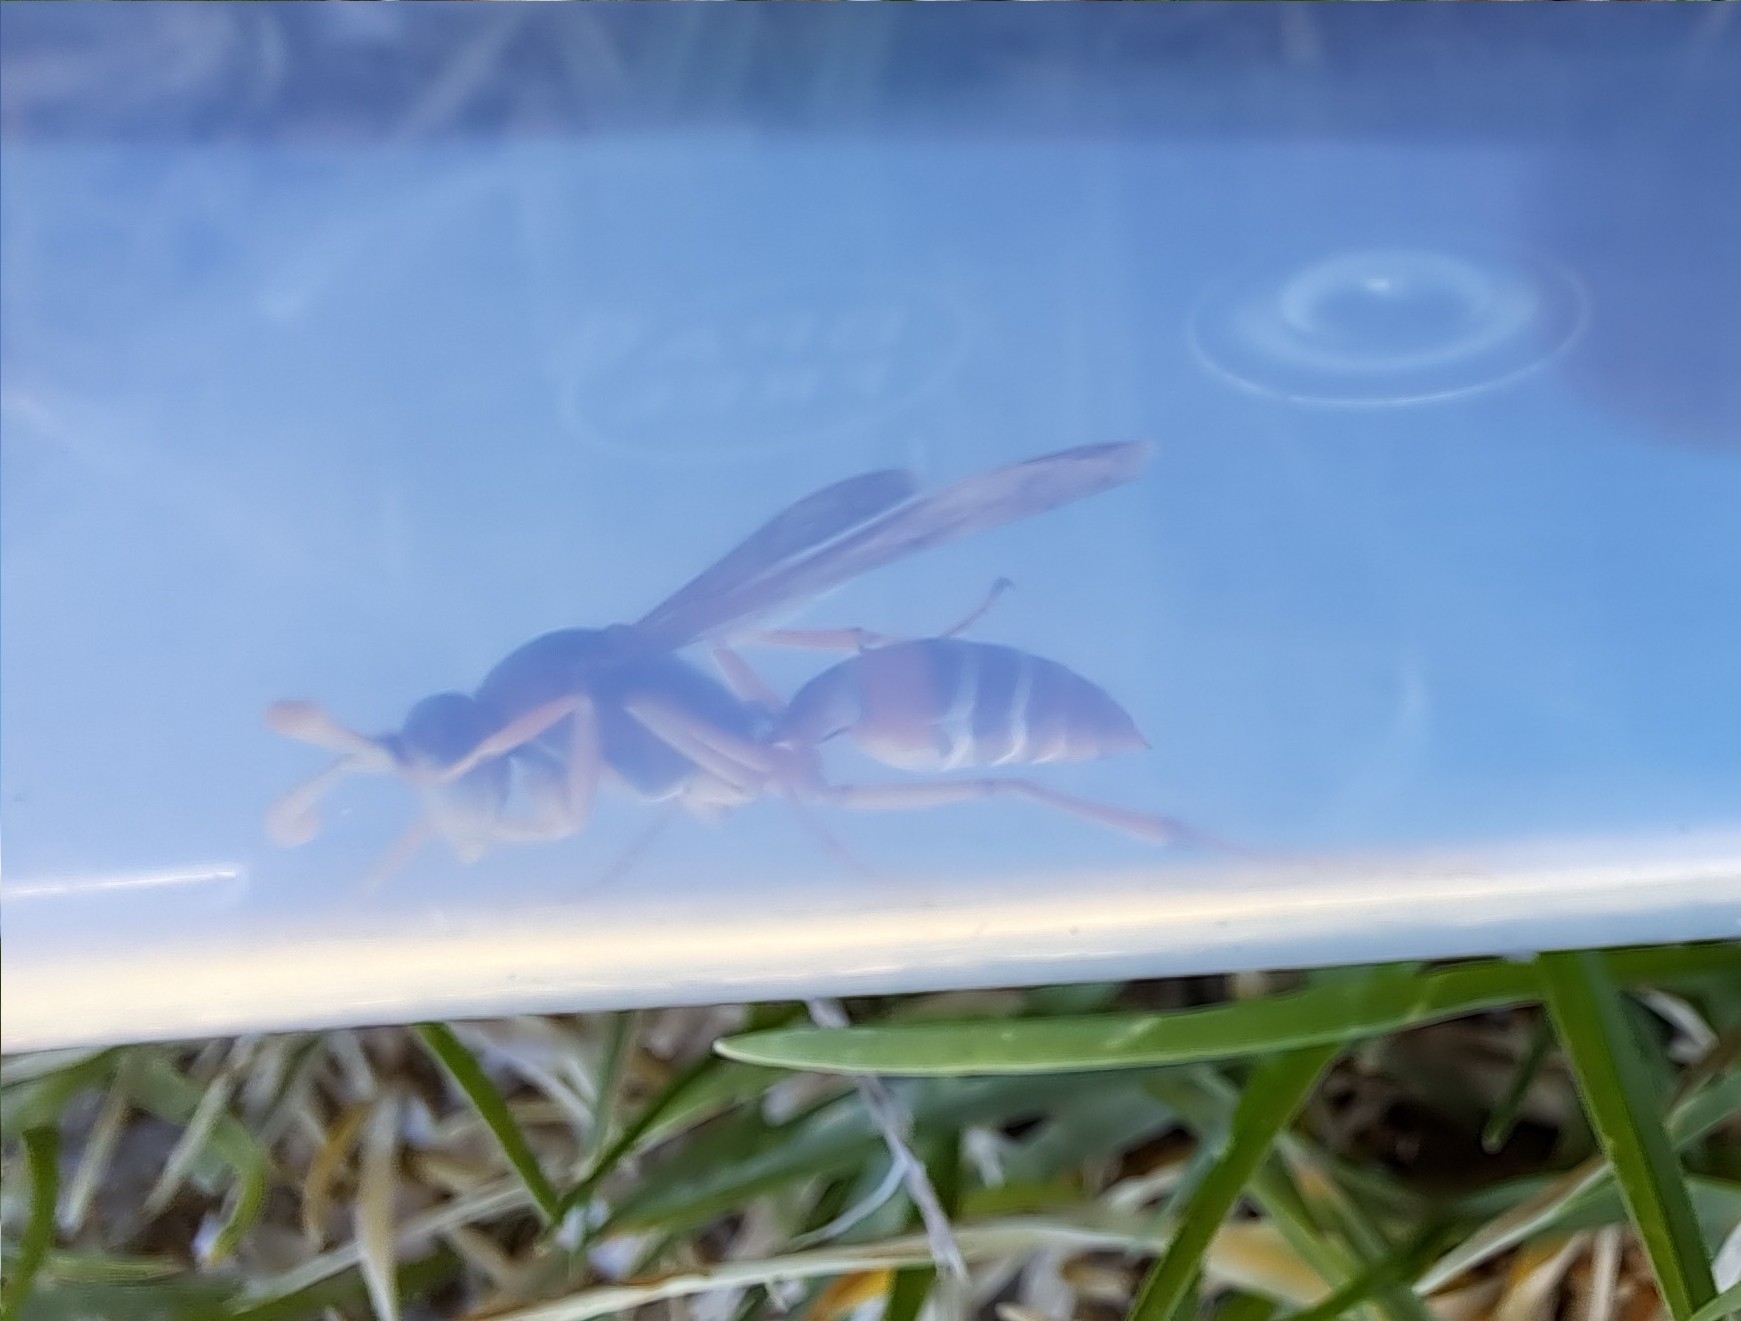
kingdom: Animalia
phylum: Arthropoda
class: Insecta
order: Hymenoptera
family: Eumenidae
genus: Polistes
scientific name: Polistes marginalis
